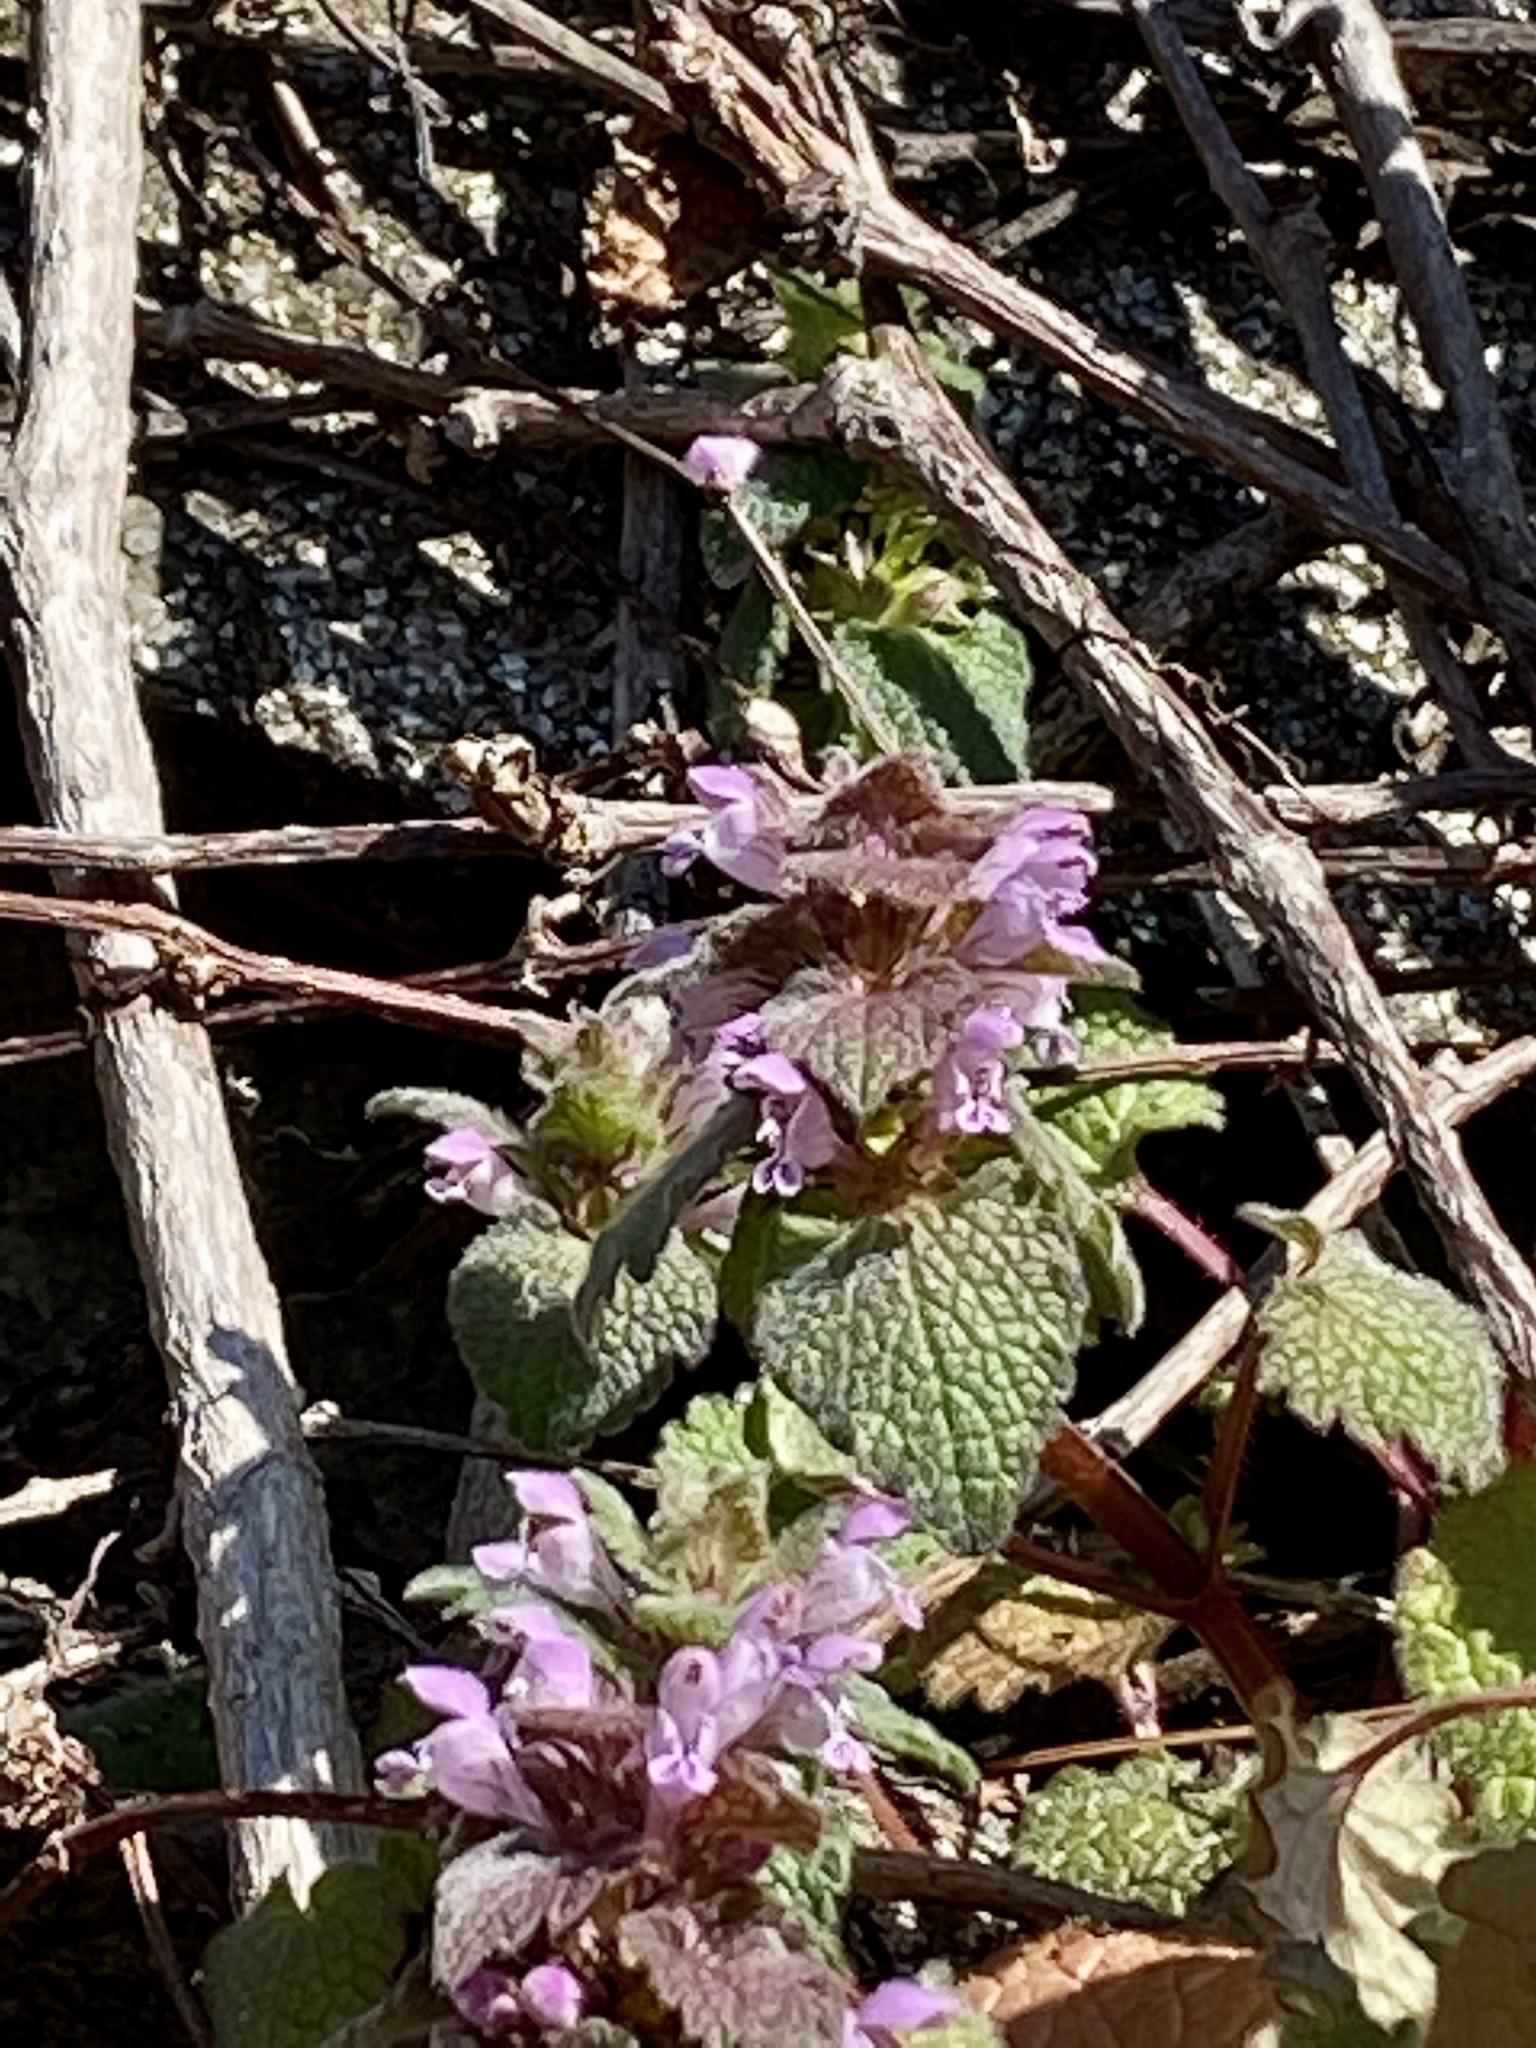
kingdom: Plantae
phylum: Tracheophyta
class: Magnoliopsida
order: Lamiales
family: Lamiaceae
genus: Lamium
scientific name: Lamium purpureum
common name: Red dead-nettle
